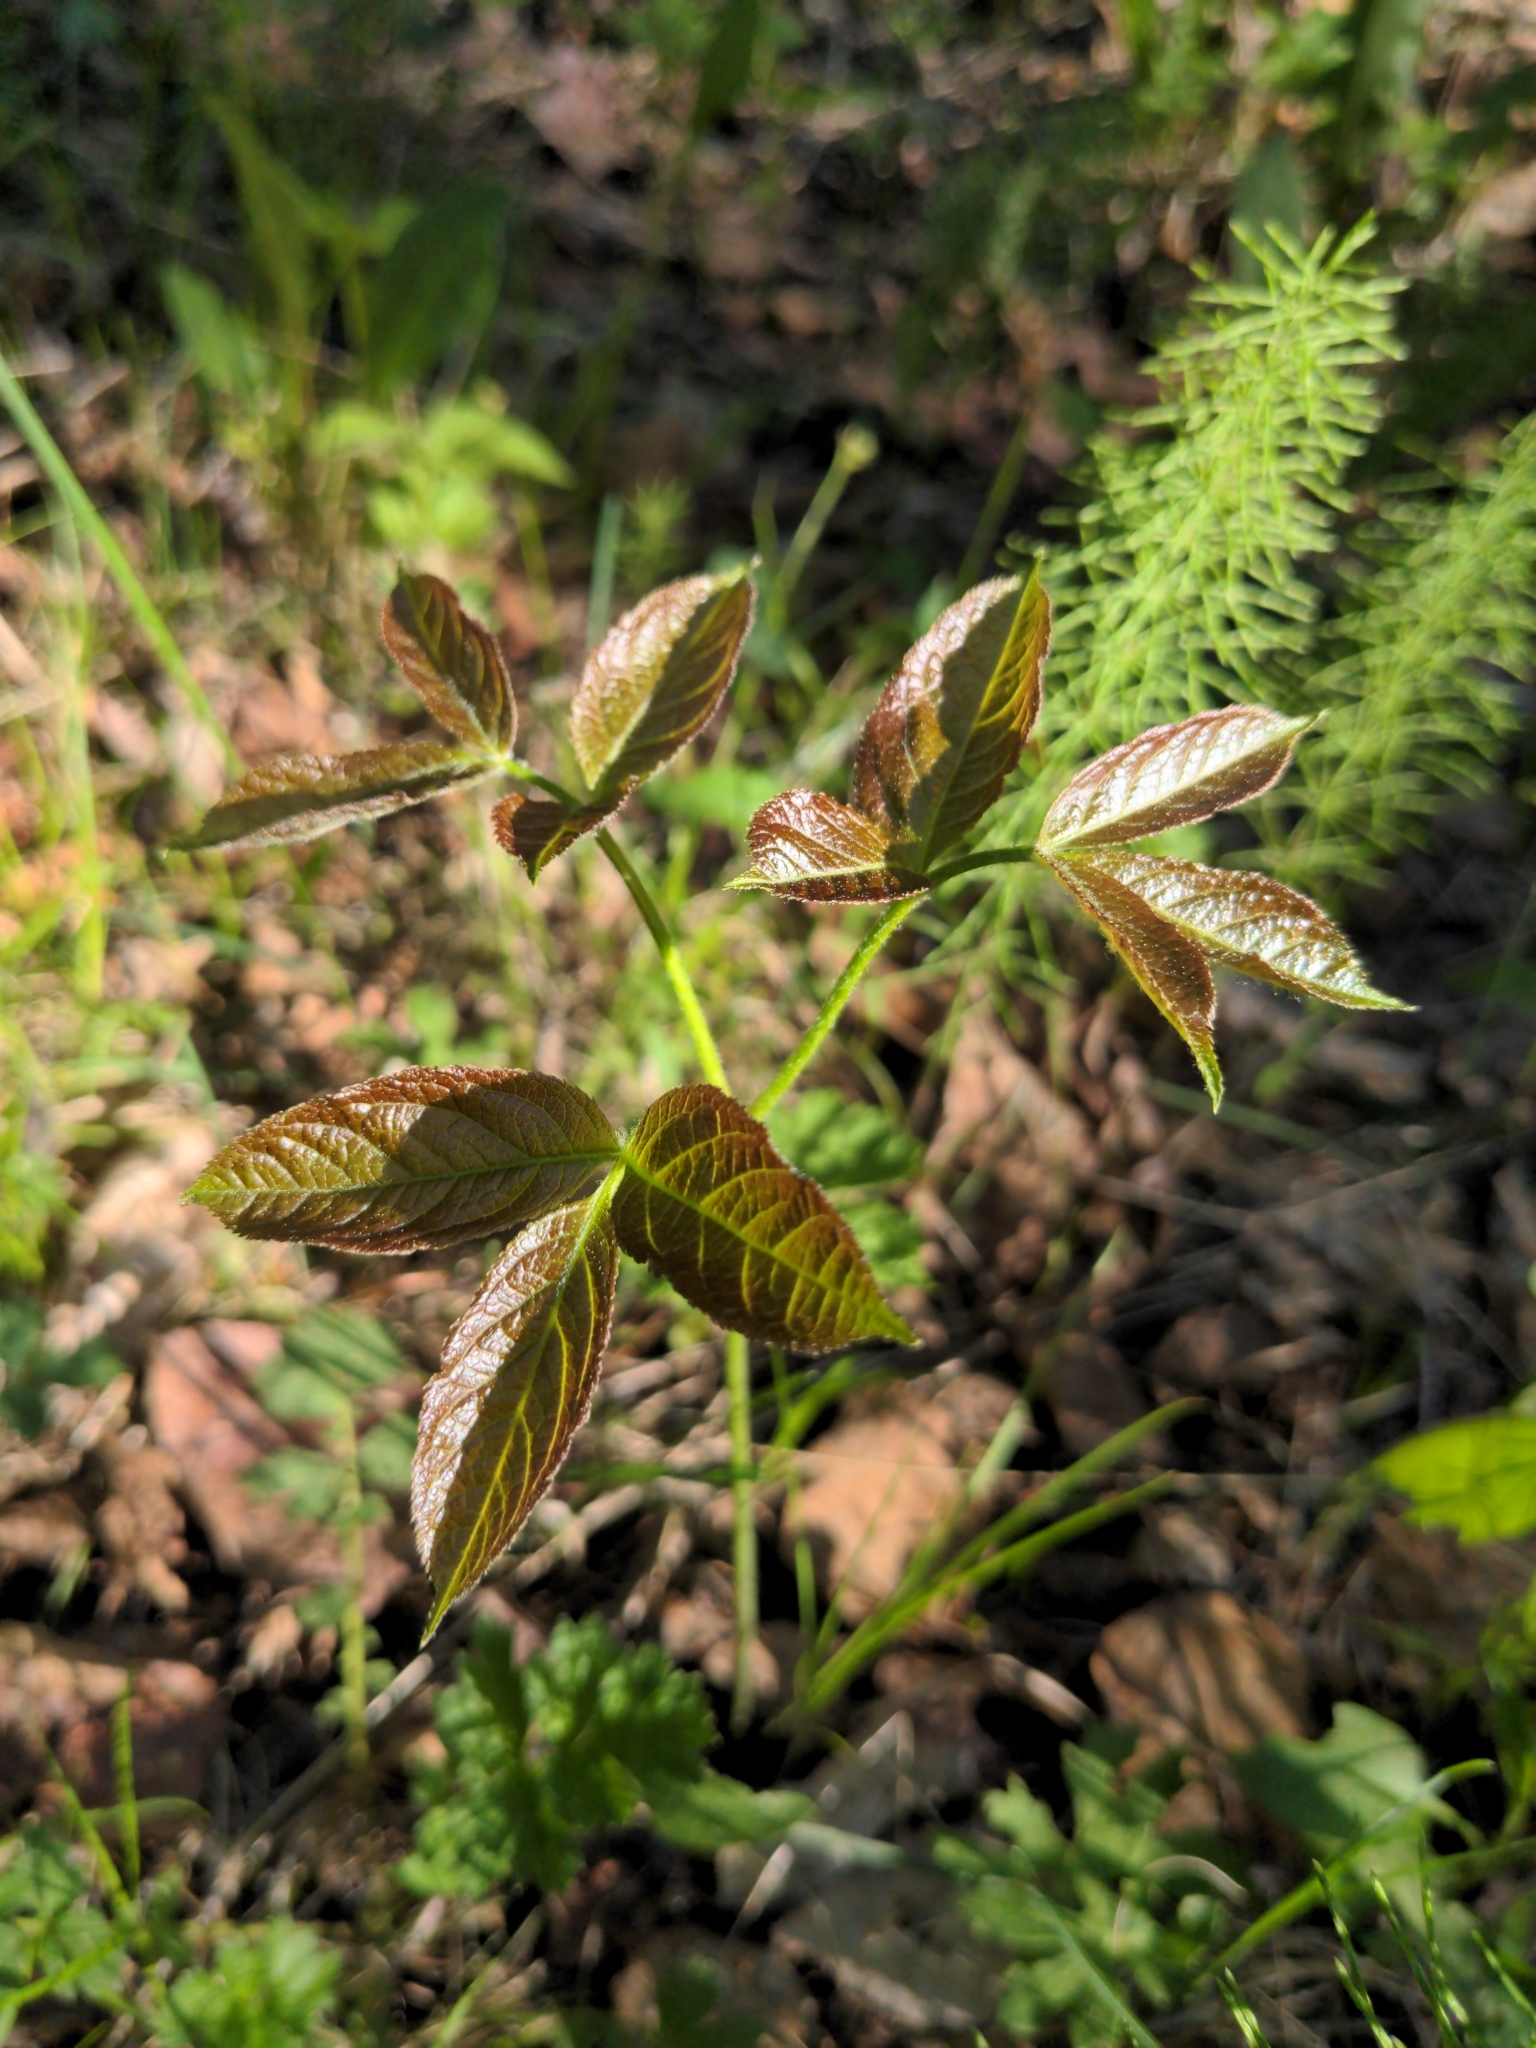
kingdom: Plantae
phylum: Tracheophyta
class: Magnoliopsida
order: Apiales
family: Araliaceae
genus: Aralia
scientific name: Aralia nudicaulis
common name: Wild sarsaparilla
